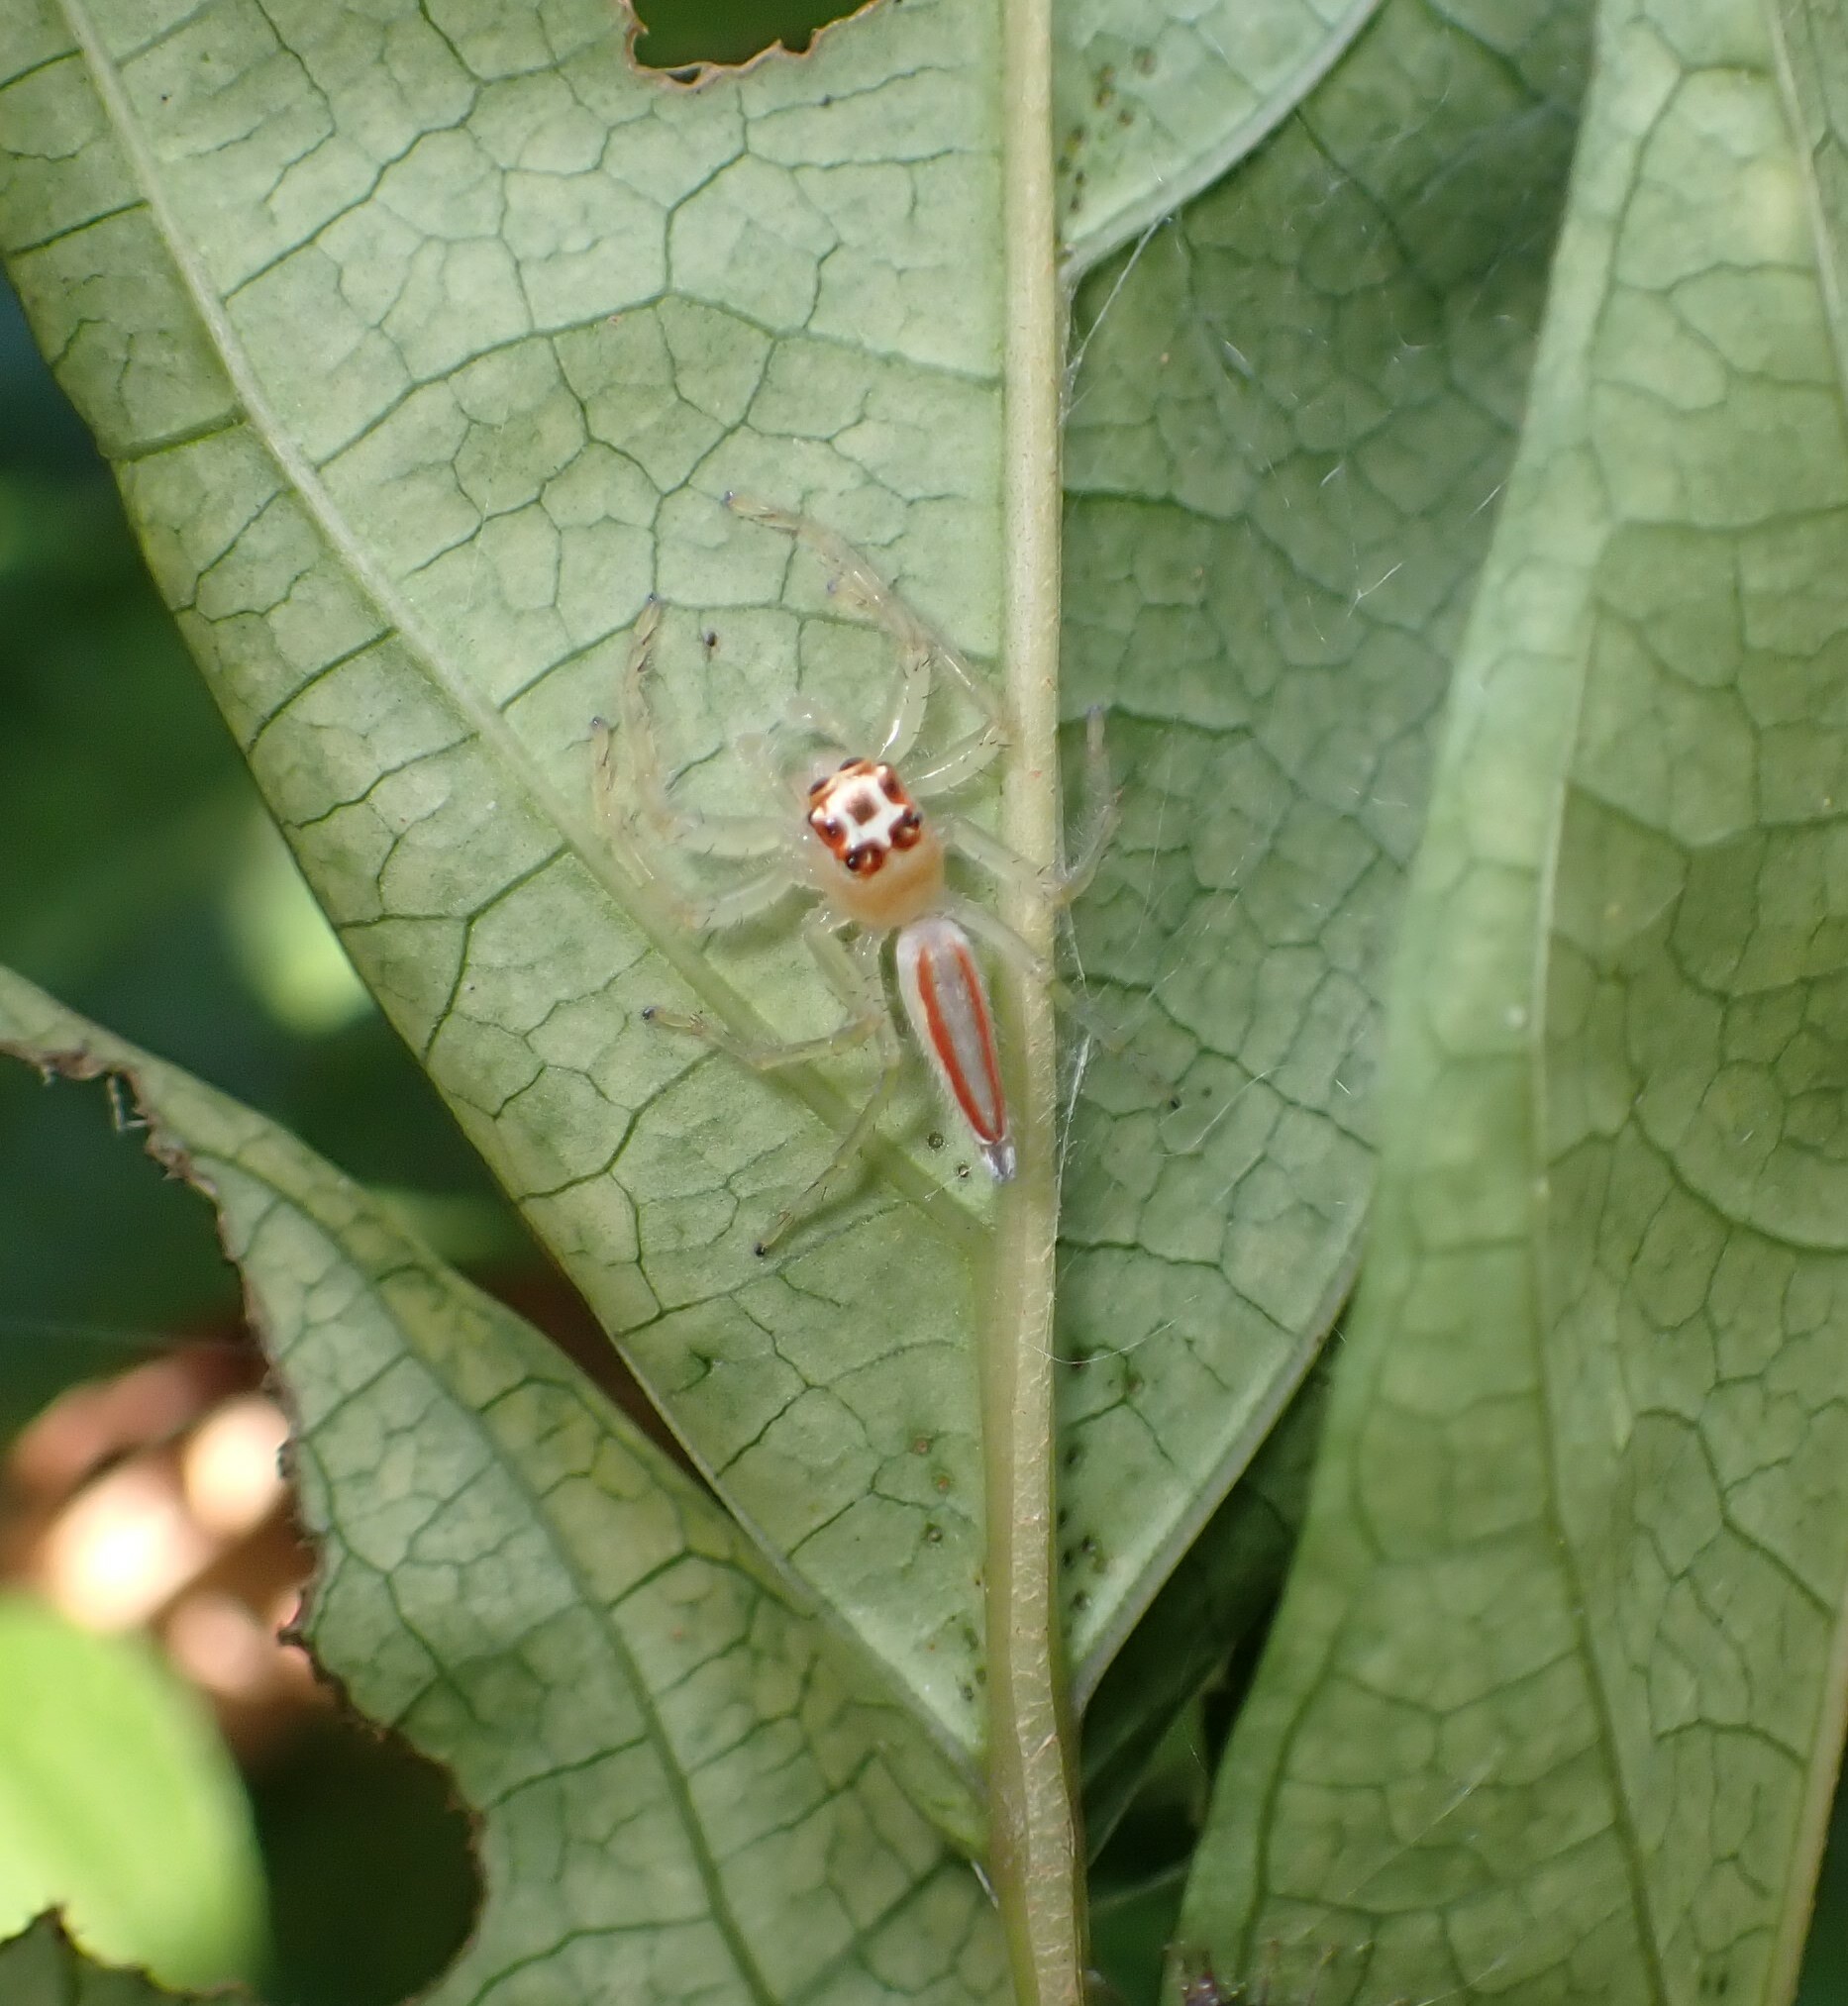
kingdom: Animalia
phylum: Arthropoda
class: Arachnida
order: Araneae
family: Salticidae
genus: Telamonia
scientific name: Telamonia dimidiata
